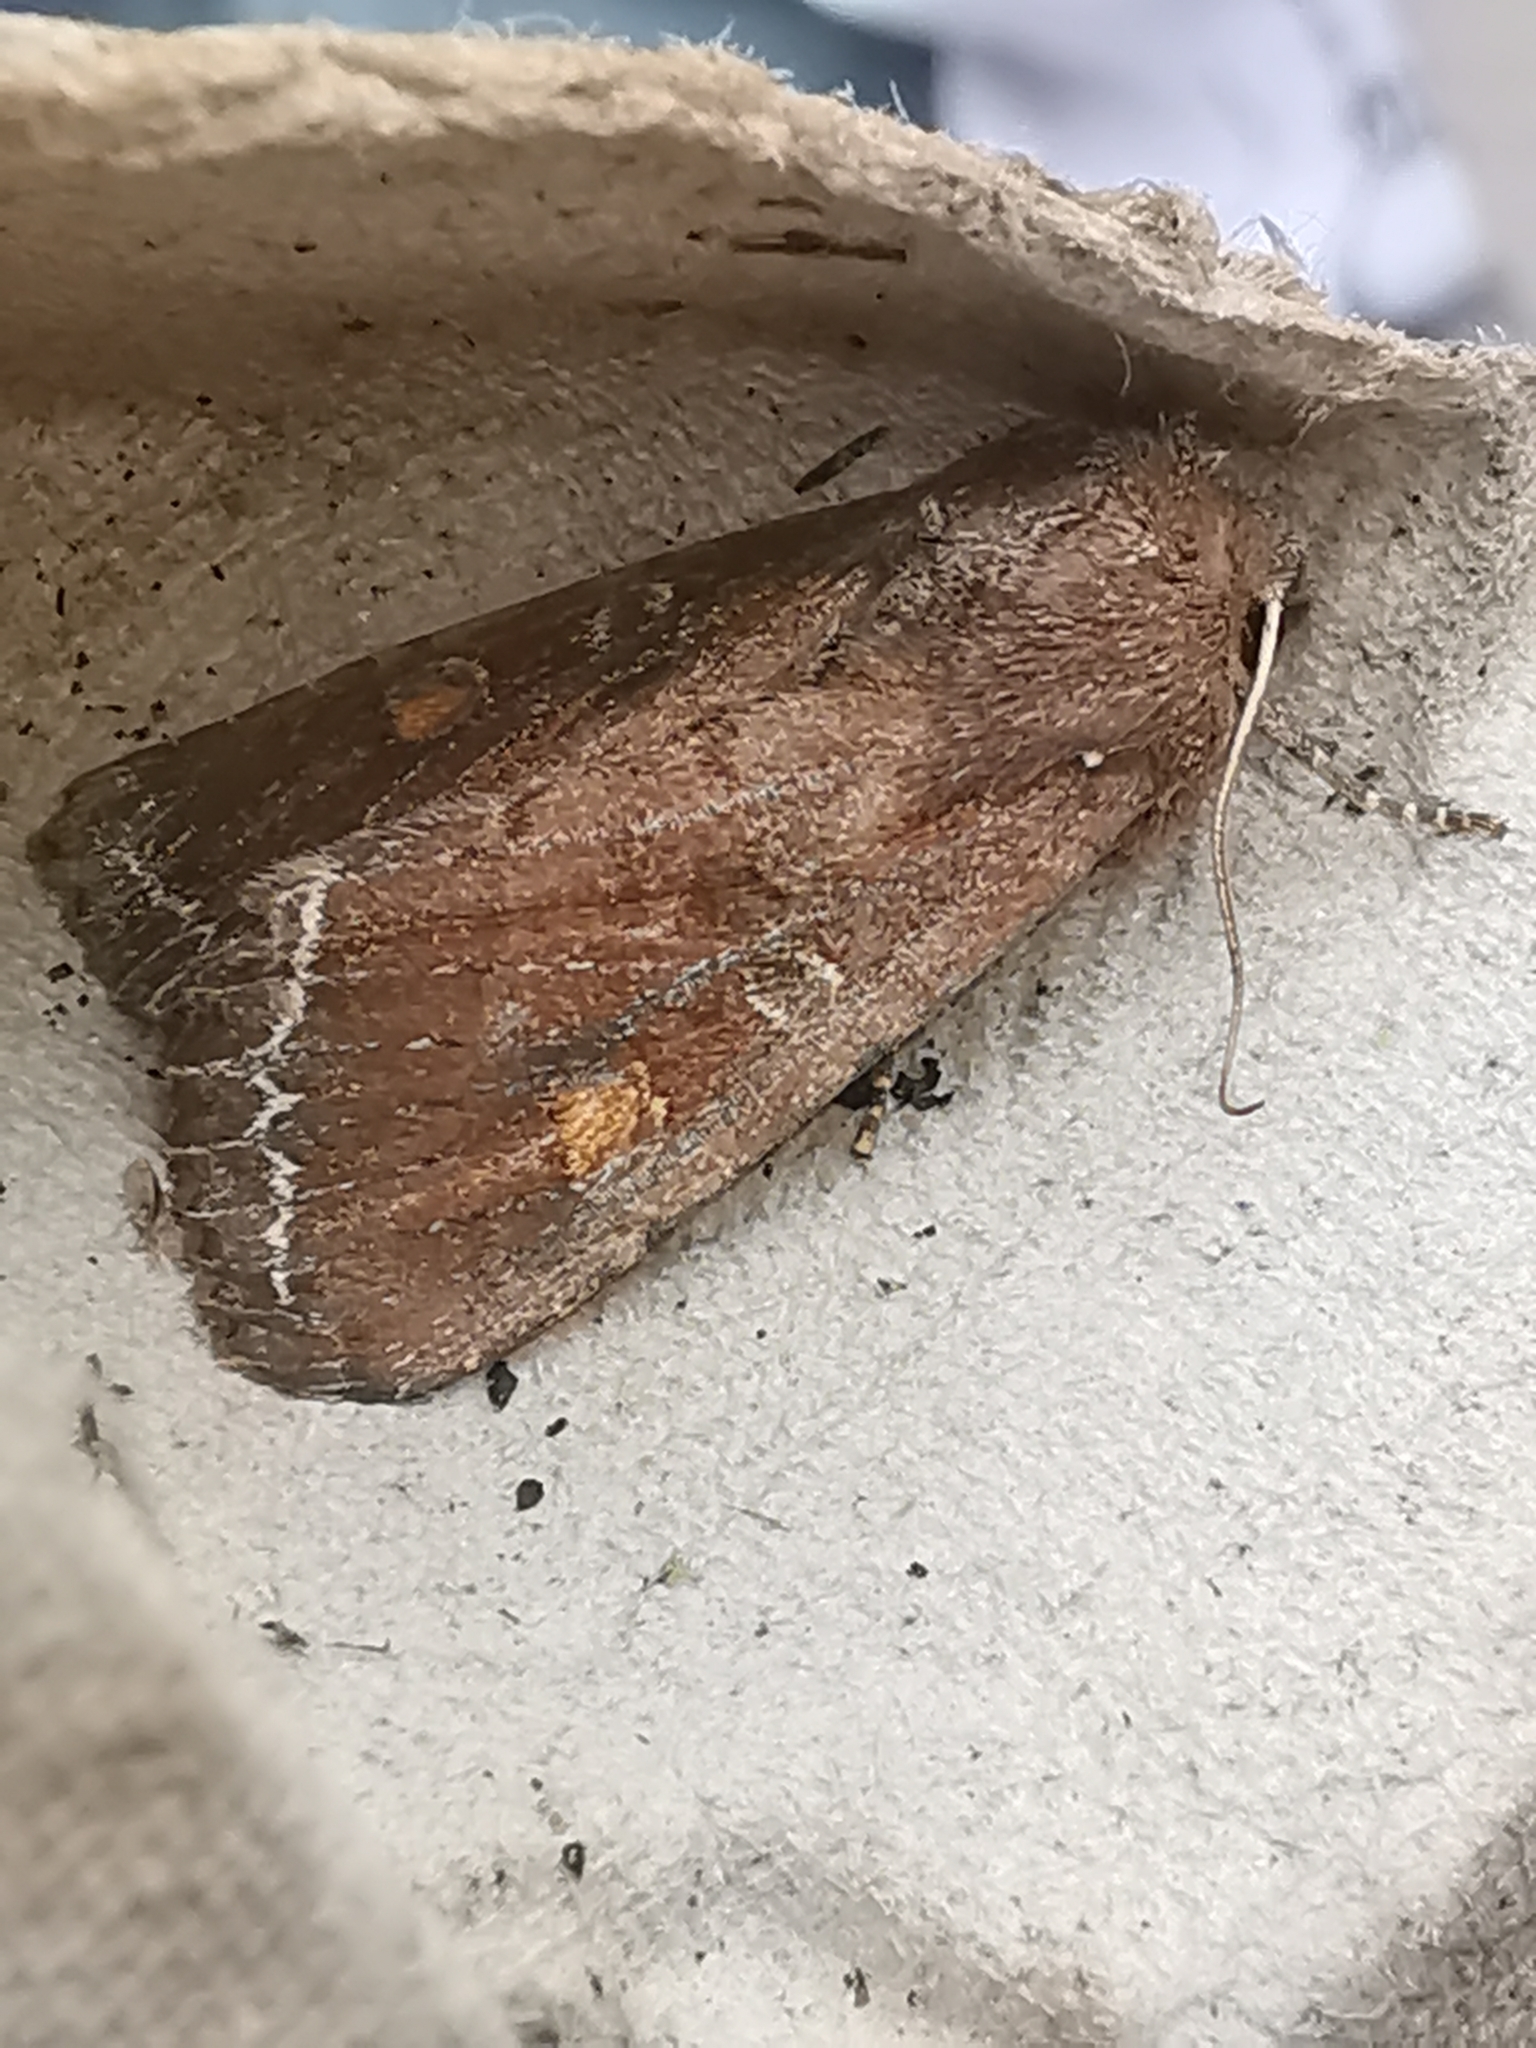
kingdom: Animalia
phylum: Arthropoda
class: Insecta
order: Lepidoptera
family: Noctuidae
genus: Lacanobia
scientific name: Lacanobia oleracea
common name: Bright-line brown-eye
